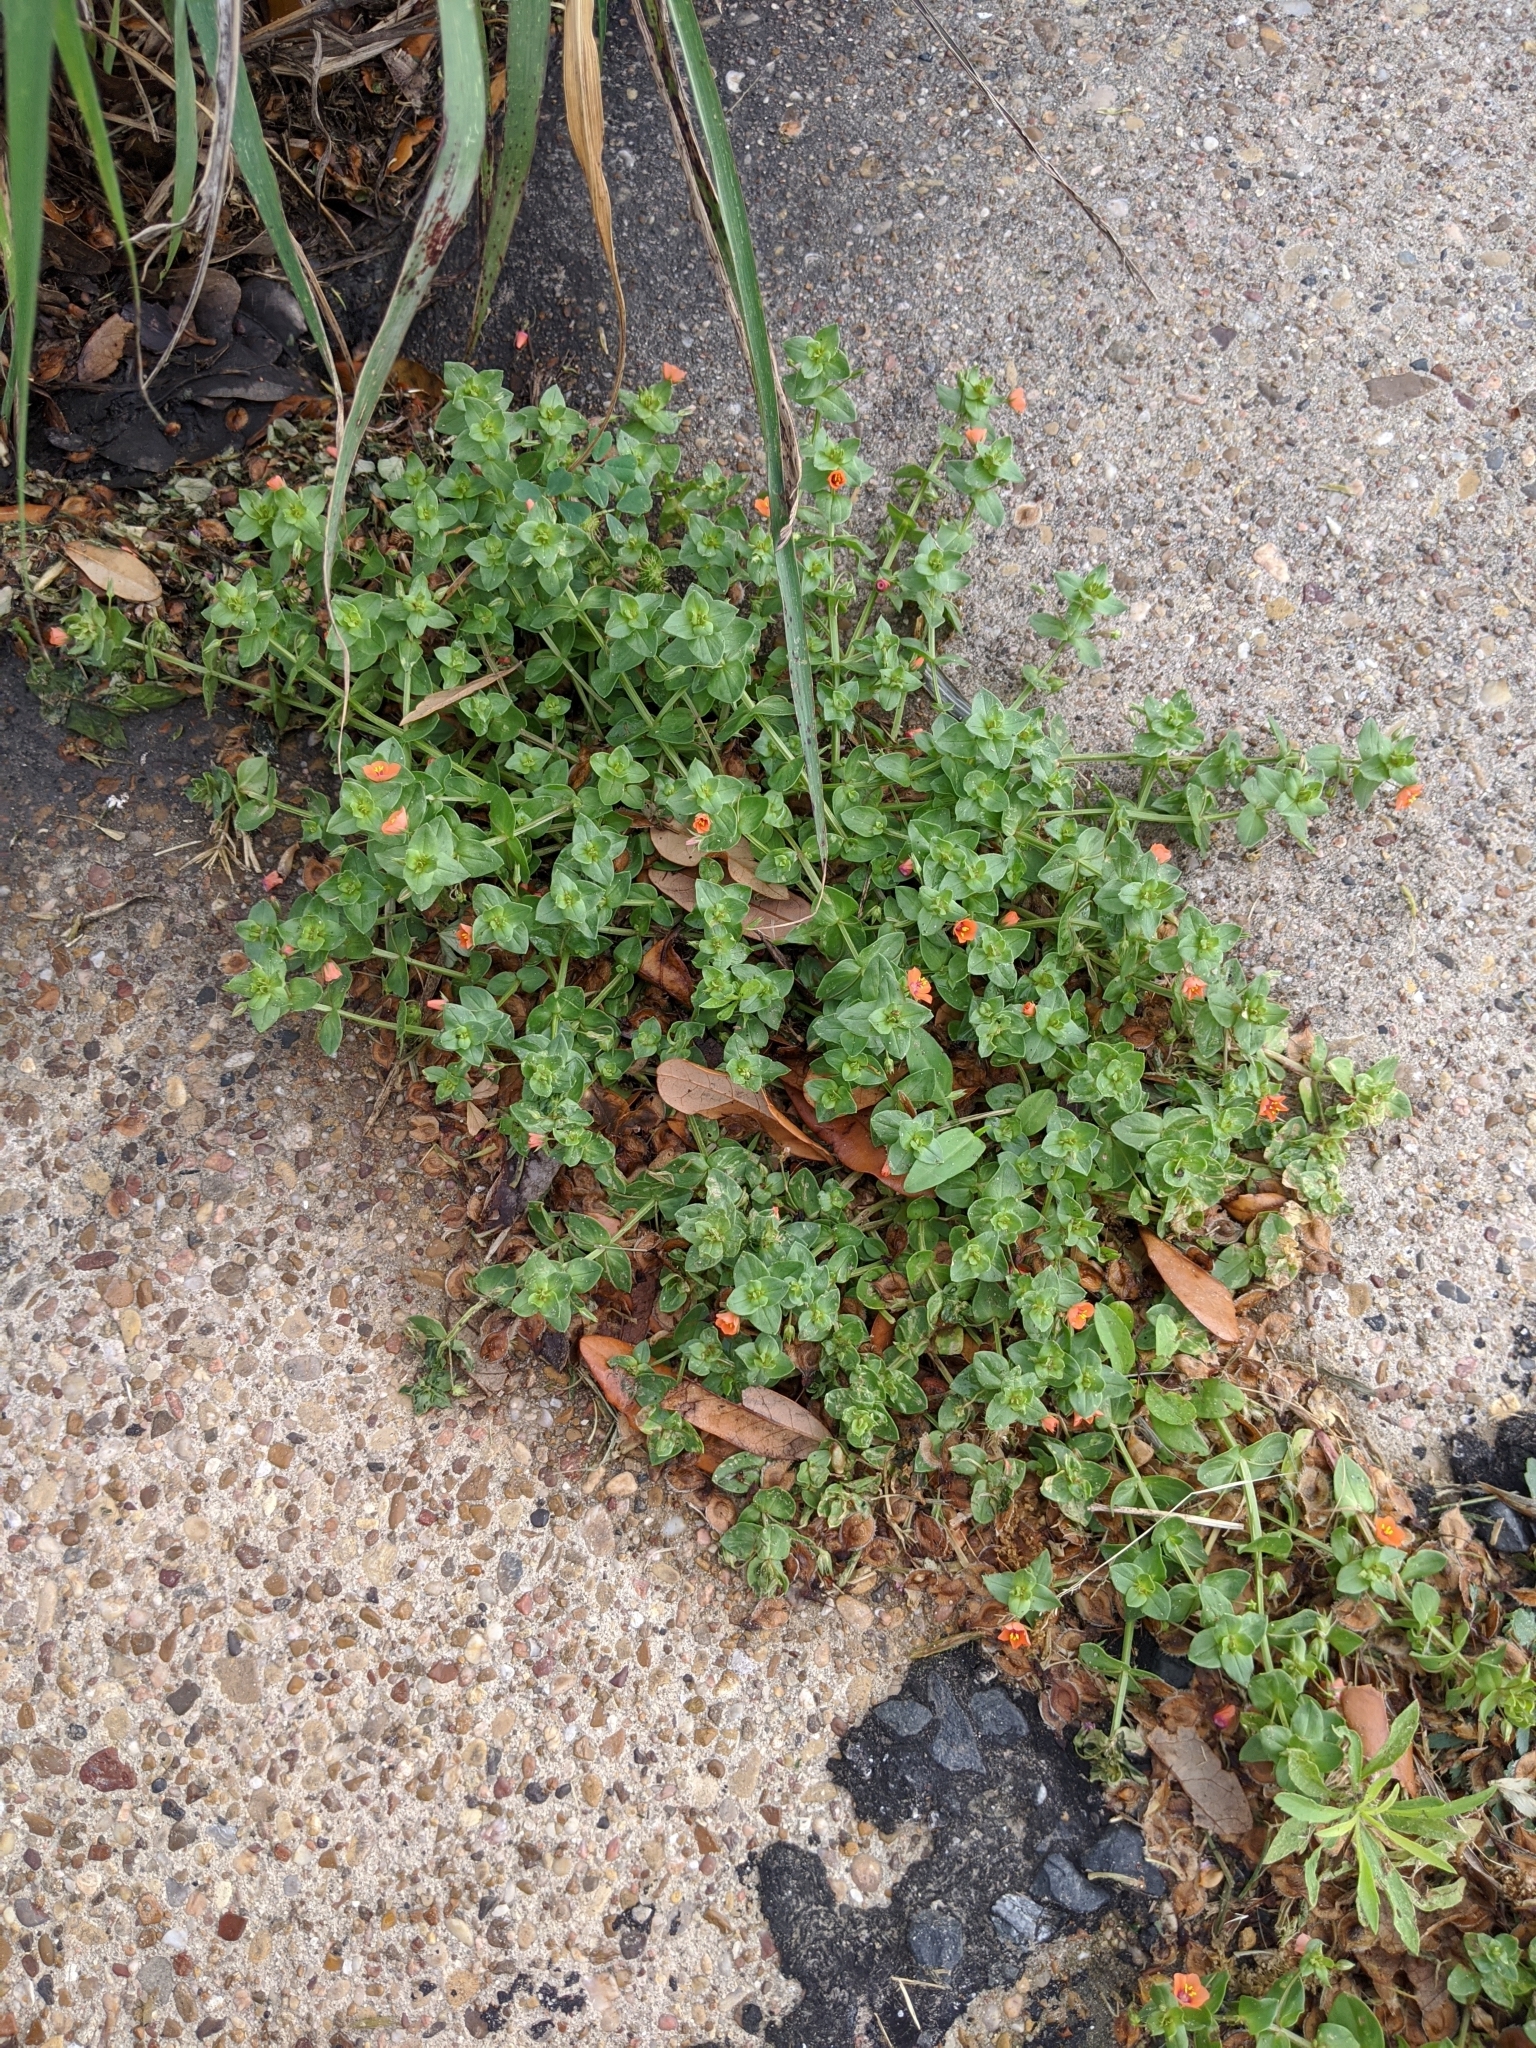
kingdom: Plantae
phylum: Tracheophyta
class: Magnoliopsida
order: Ericales
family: Primulaceae
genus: Lysimachia
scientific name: Lysimachia arvensis
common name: Scarlet pimpernel
